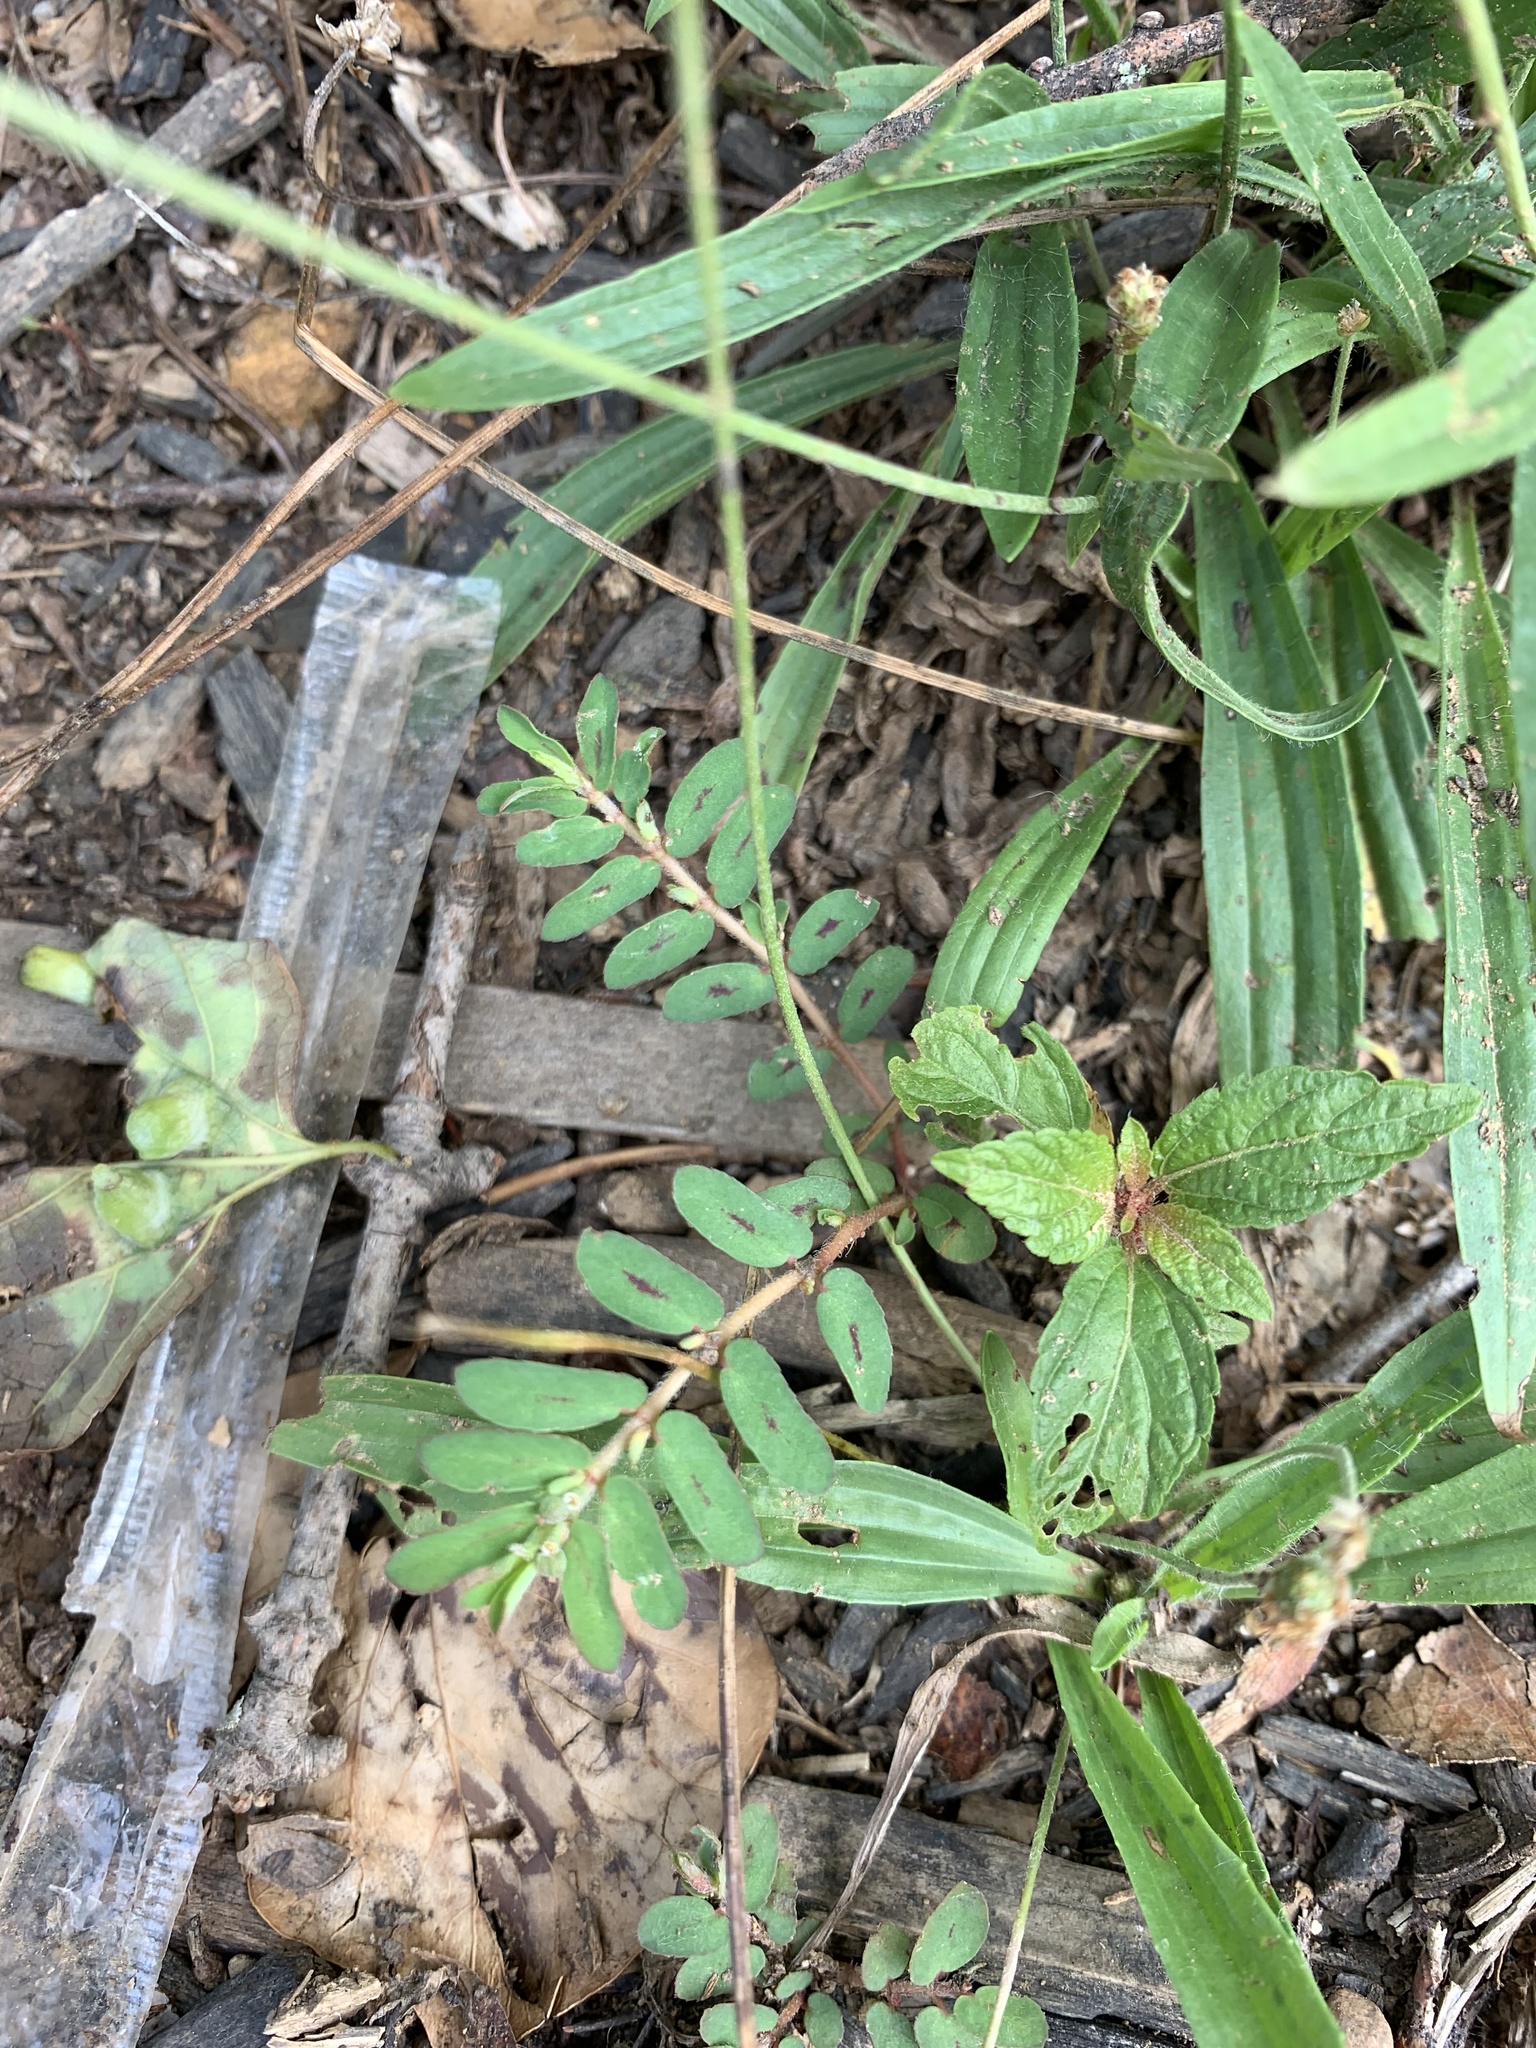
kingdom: Plantae
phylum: Tracheophyta
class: Magnoliopsida
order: Malpighiales
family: Euphorbiaceae
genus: Euphorbia
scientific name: Euphorbia maculata
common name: Spotted spurge
